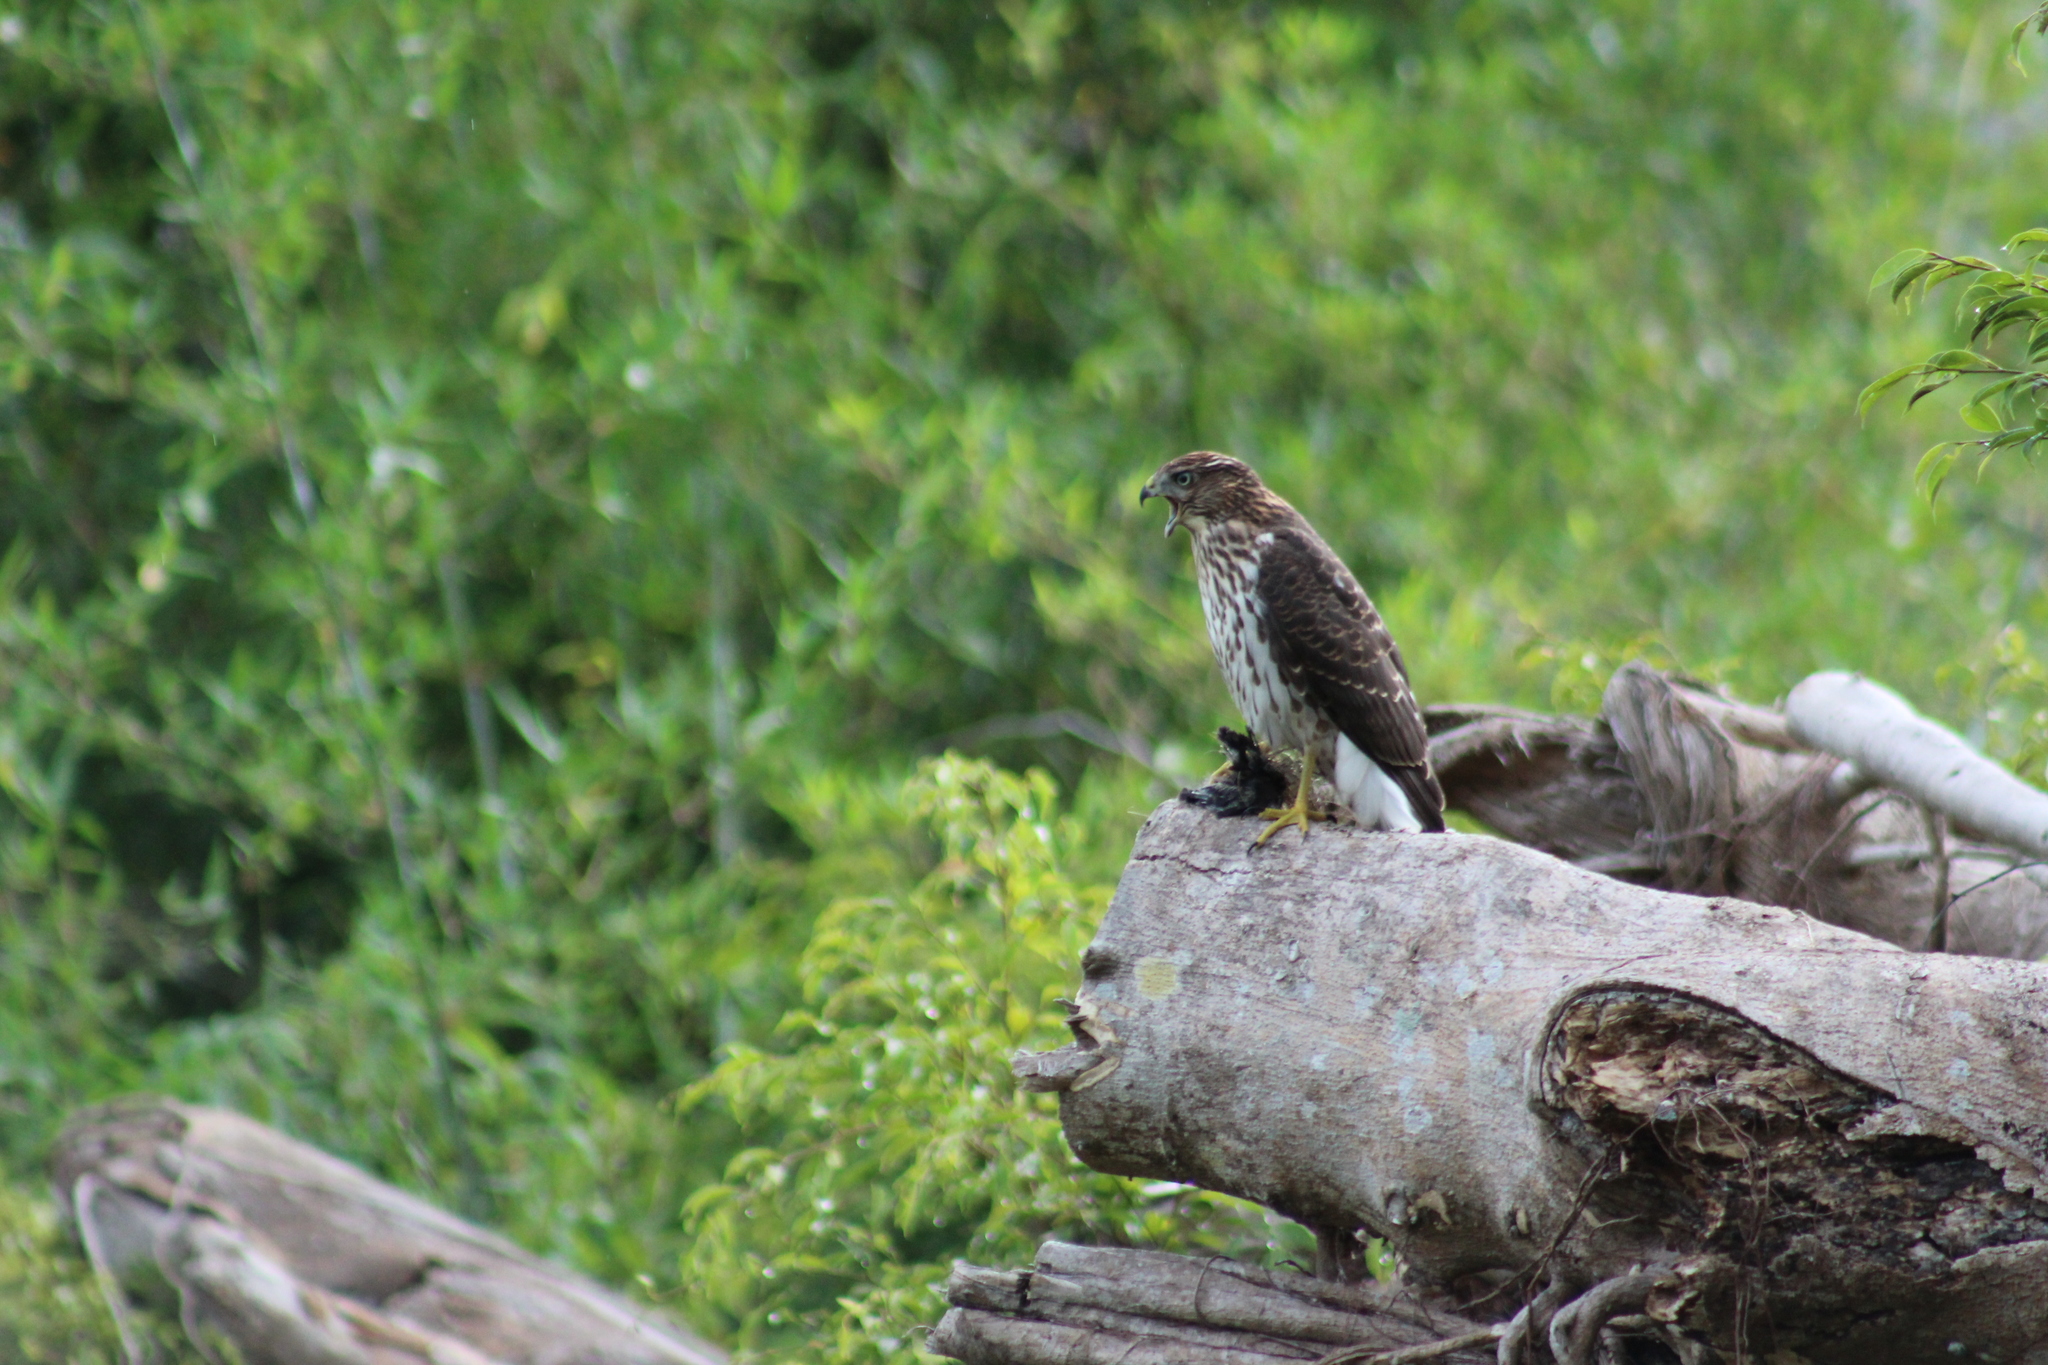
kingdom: Animalia
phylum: Chordata
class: Aves
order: Accipitriformes
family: Accipitridae
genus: Accipiter
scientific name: Accipiter cooperii
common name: Cooper's hawk
